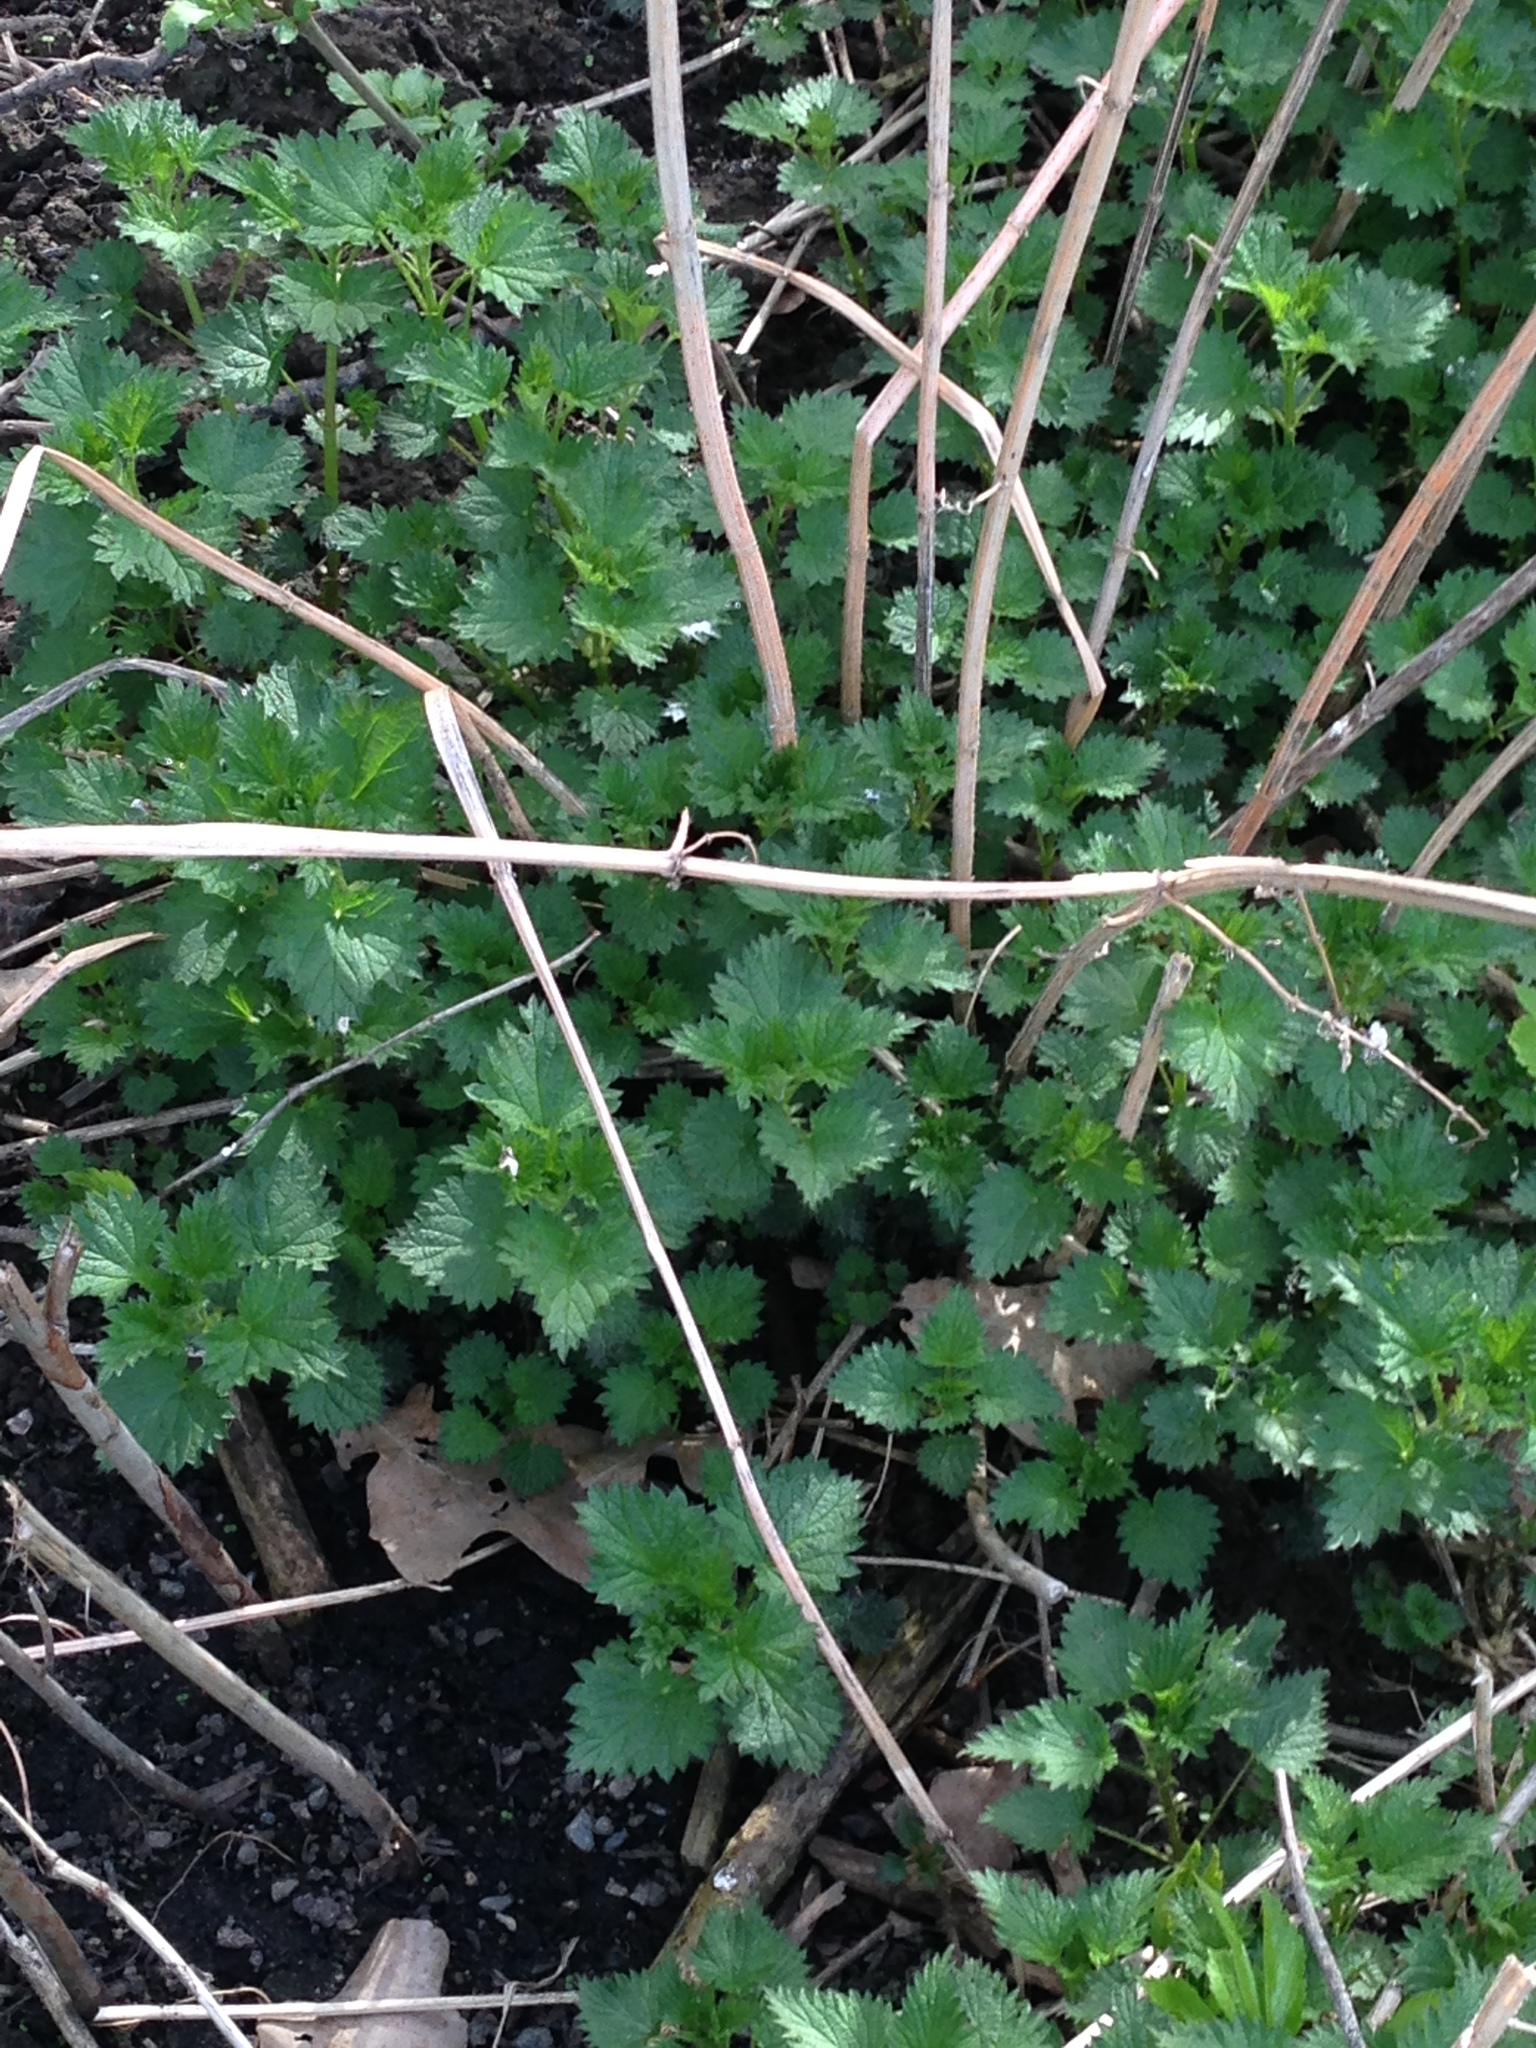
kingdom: Plantae
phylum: Tracheophyta
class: Magnoliopsida
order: Rosales
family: Urticaceae
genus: Urtica
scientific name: Urtica dioica
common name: Common nettle
